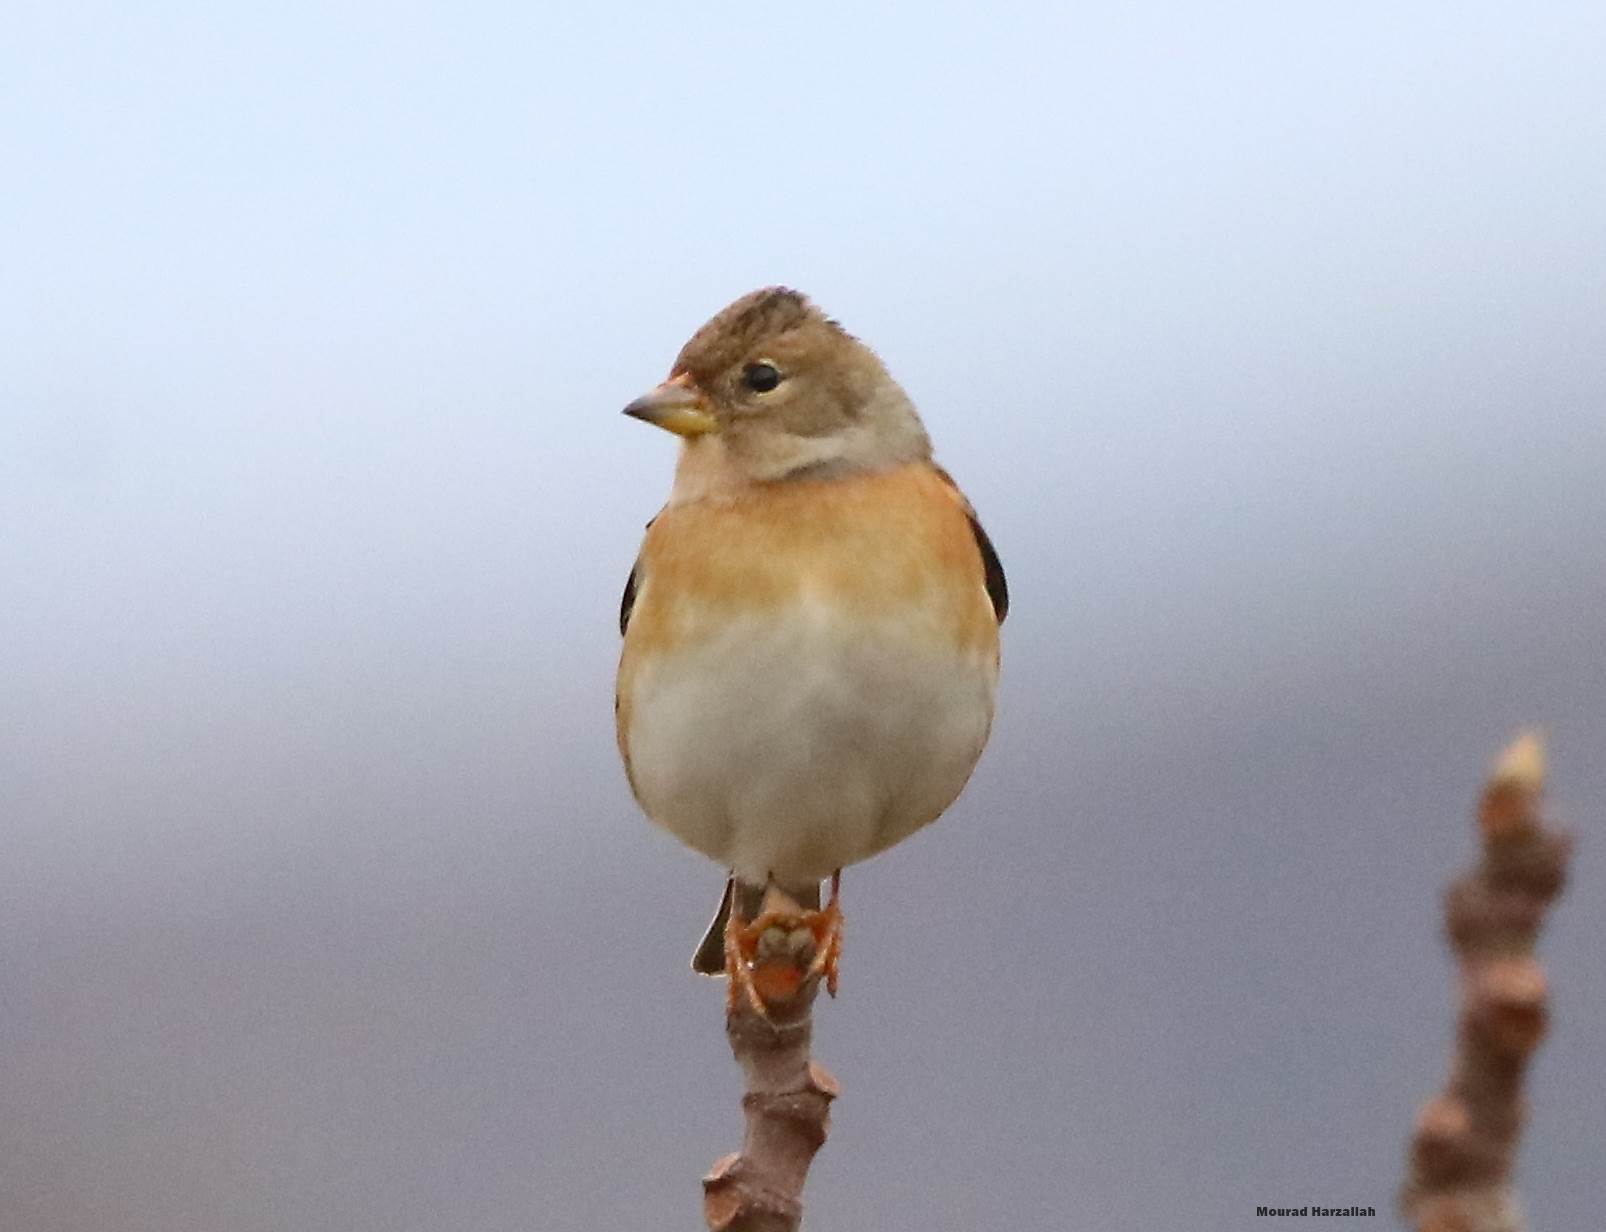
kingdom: Animalia
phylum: Chordata
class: Aves
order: Passeriformes
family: Fringillidae
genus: Fringilla
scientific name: Fringilla montifringilla
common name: Brambling
